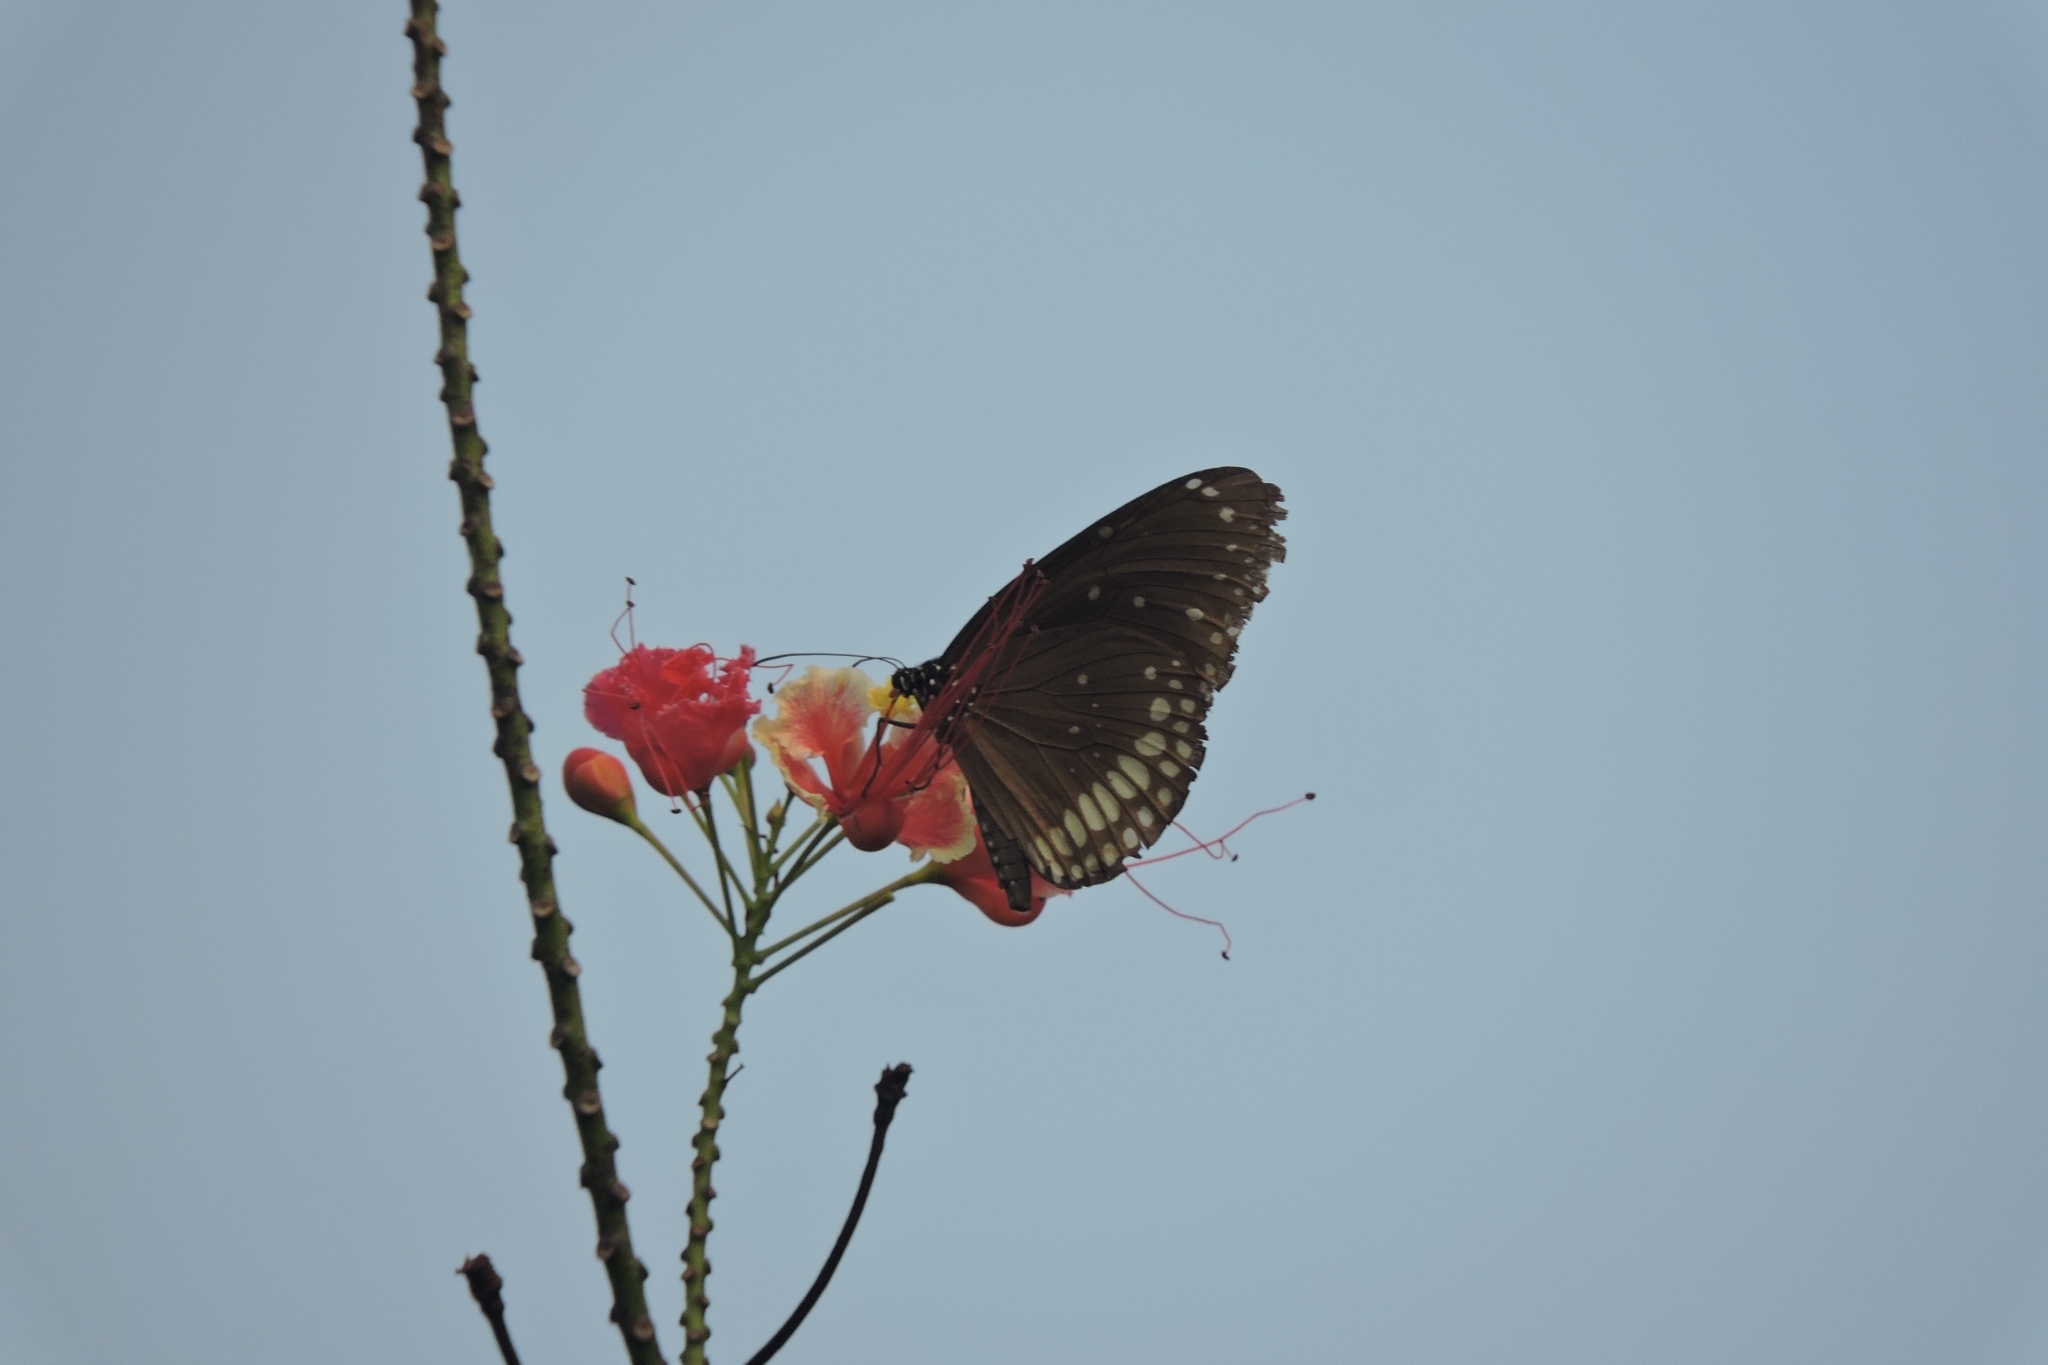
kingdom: Animalia
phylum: Arthropoda
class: Insecta
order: Lepidoptera
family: Nymphalidae
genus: Euploea
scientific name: Euploea core
